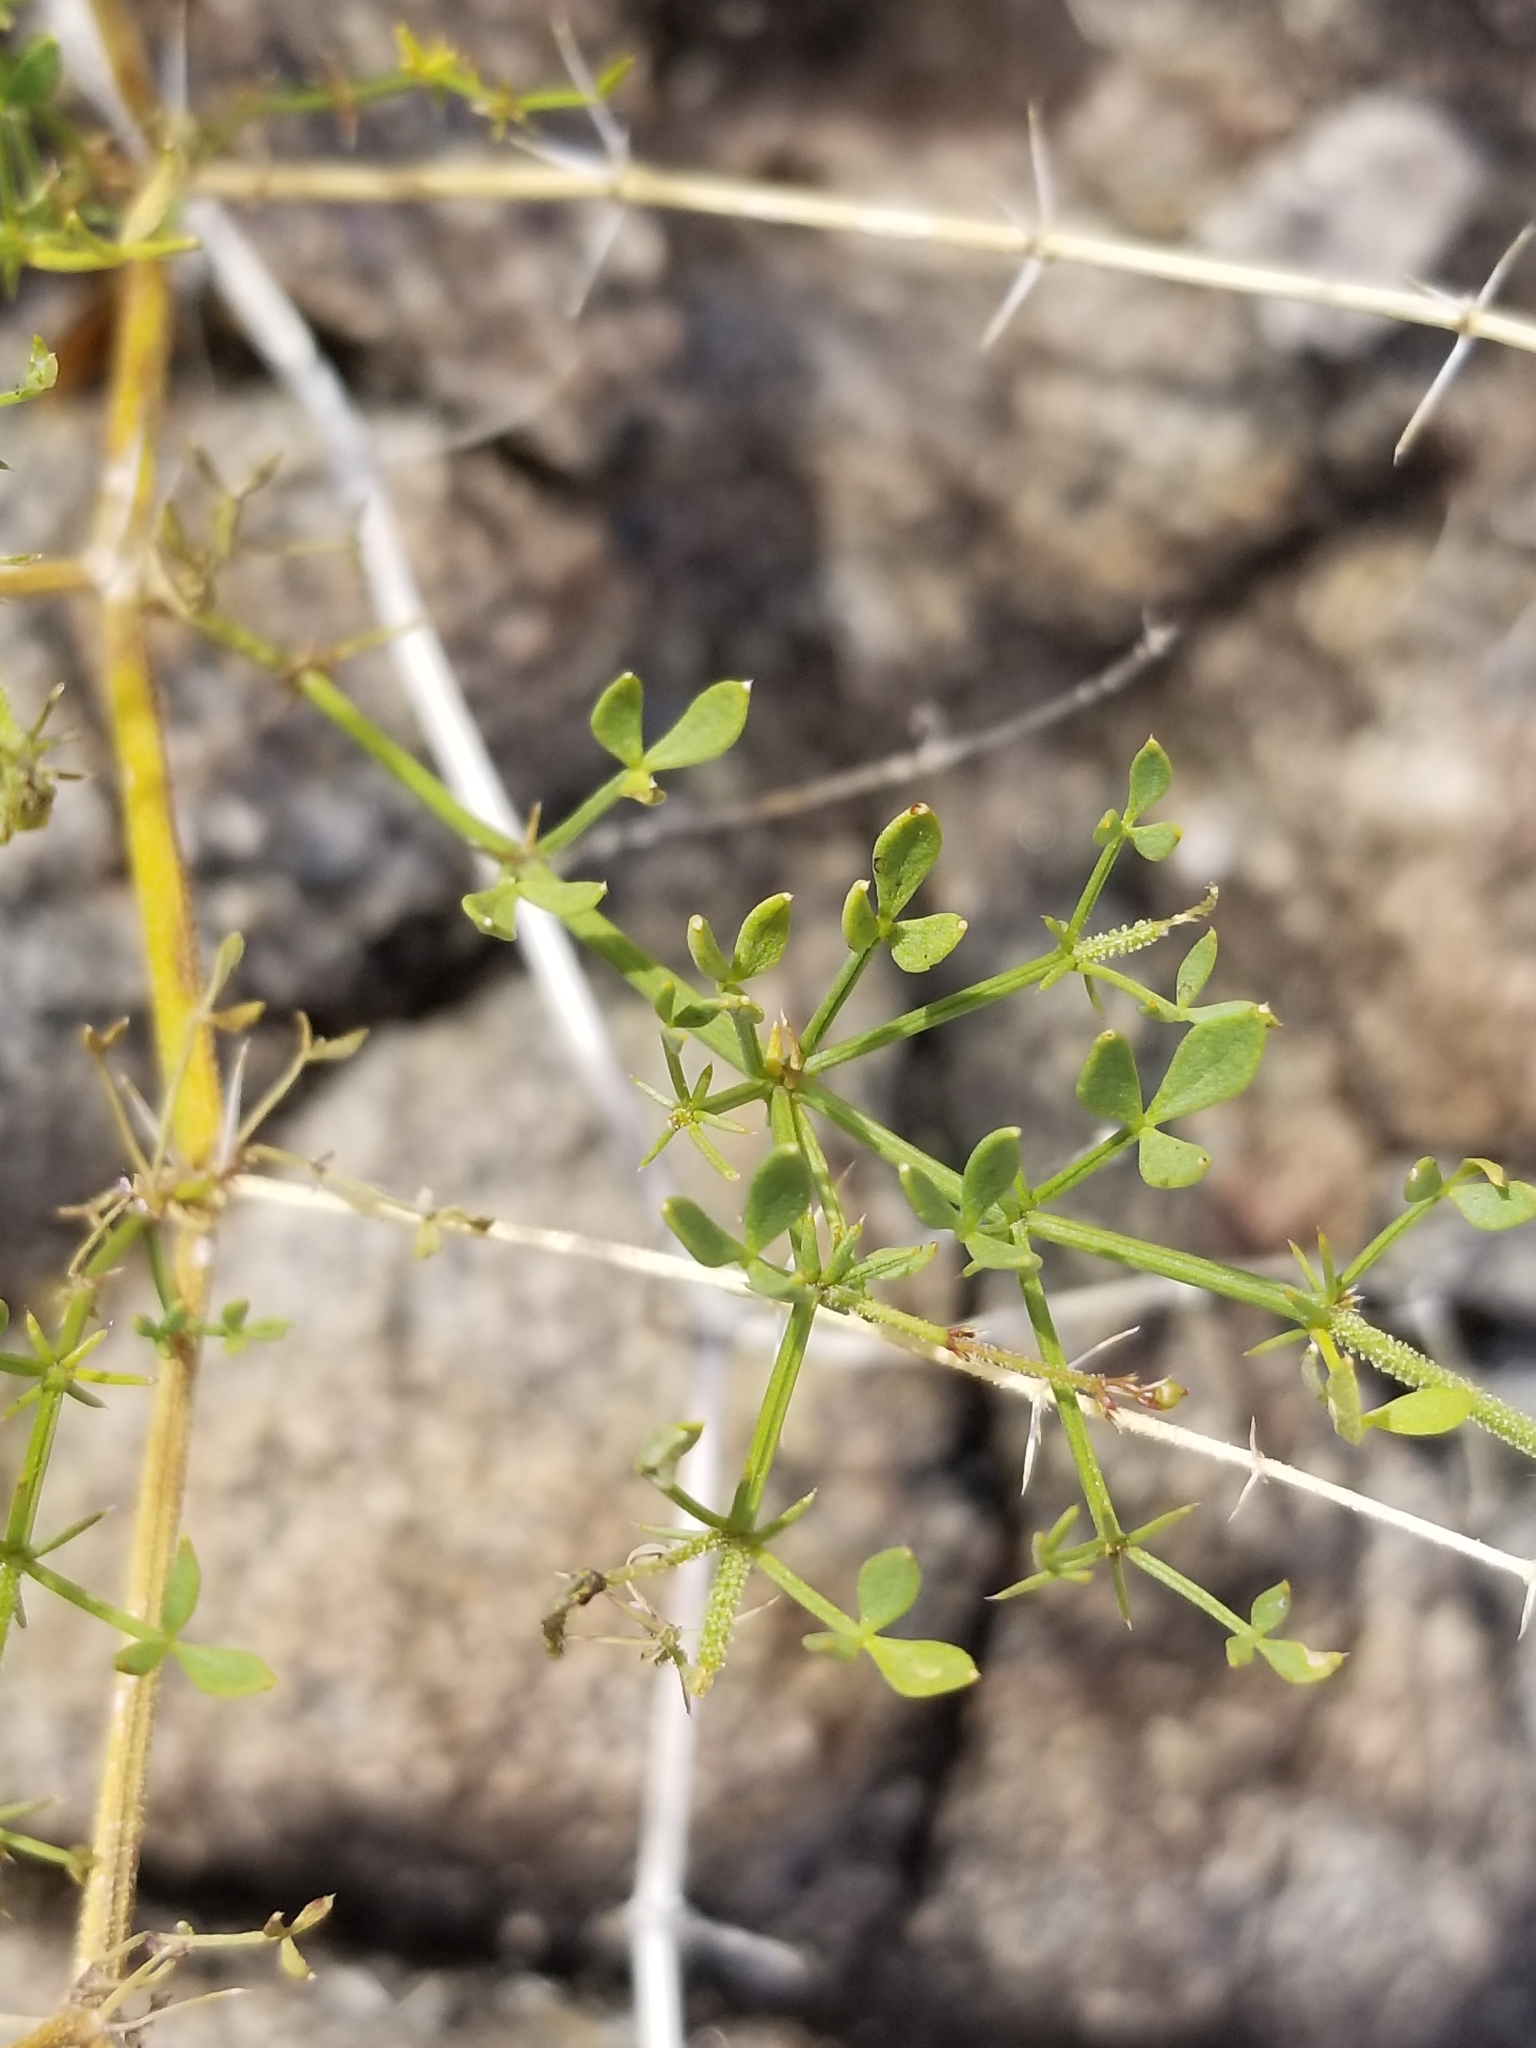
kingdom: Plantae
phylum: Tracheophyta
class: Magnoliopsida
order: Zygophyllales
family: Zygophyllaceae
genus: Fagonia
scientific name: Fagonia pachyacantha
